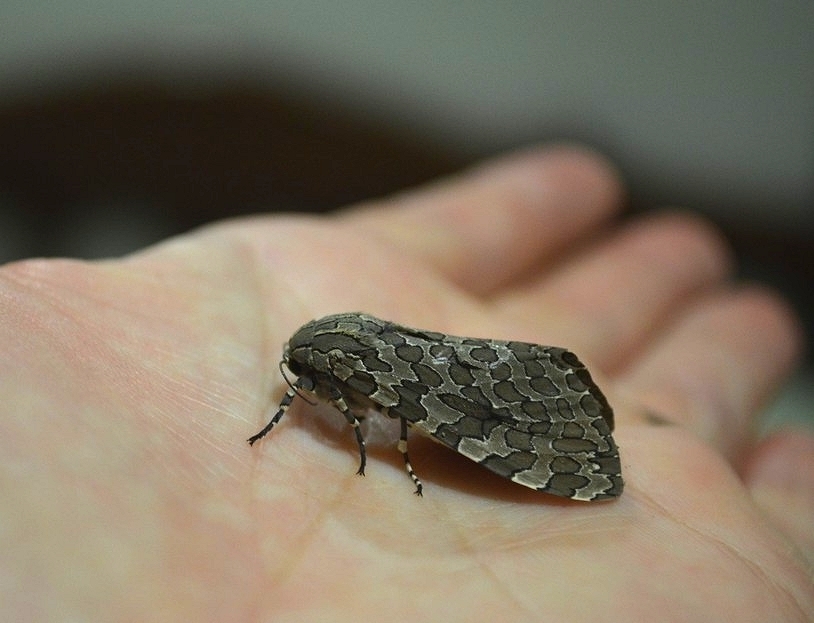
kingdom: Animalia
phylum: Arthropoda
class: Insecta
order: Lepidoptera
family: Erebidae
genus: Hypercompe
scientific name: Hypercompe indecisa
